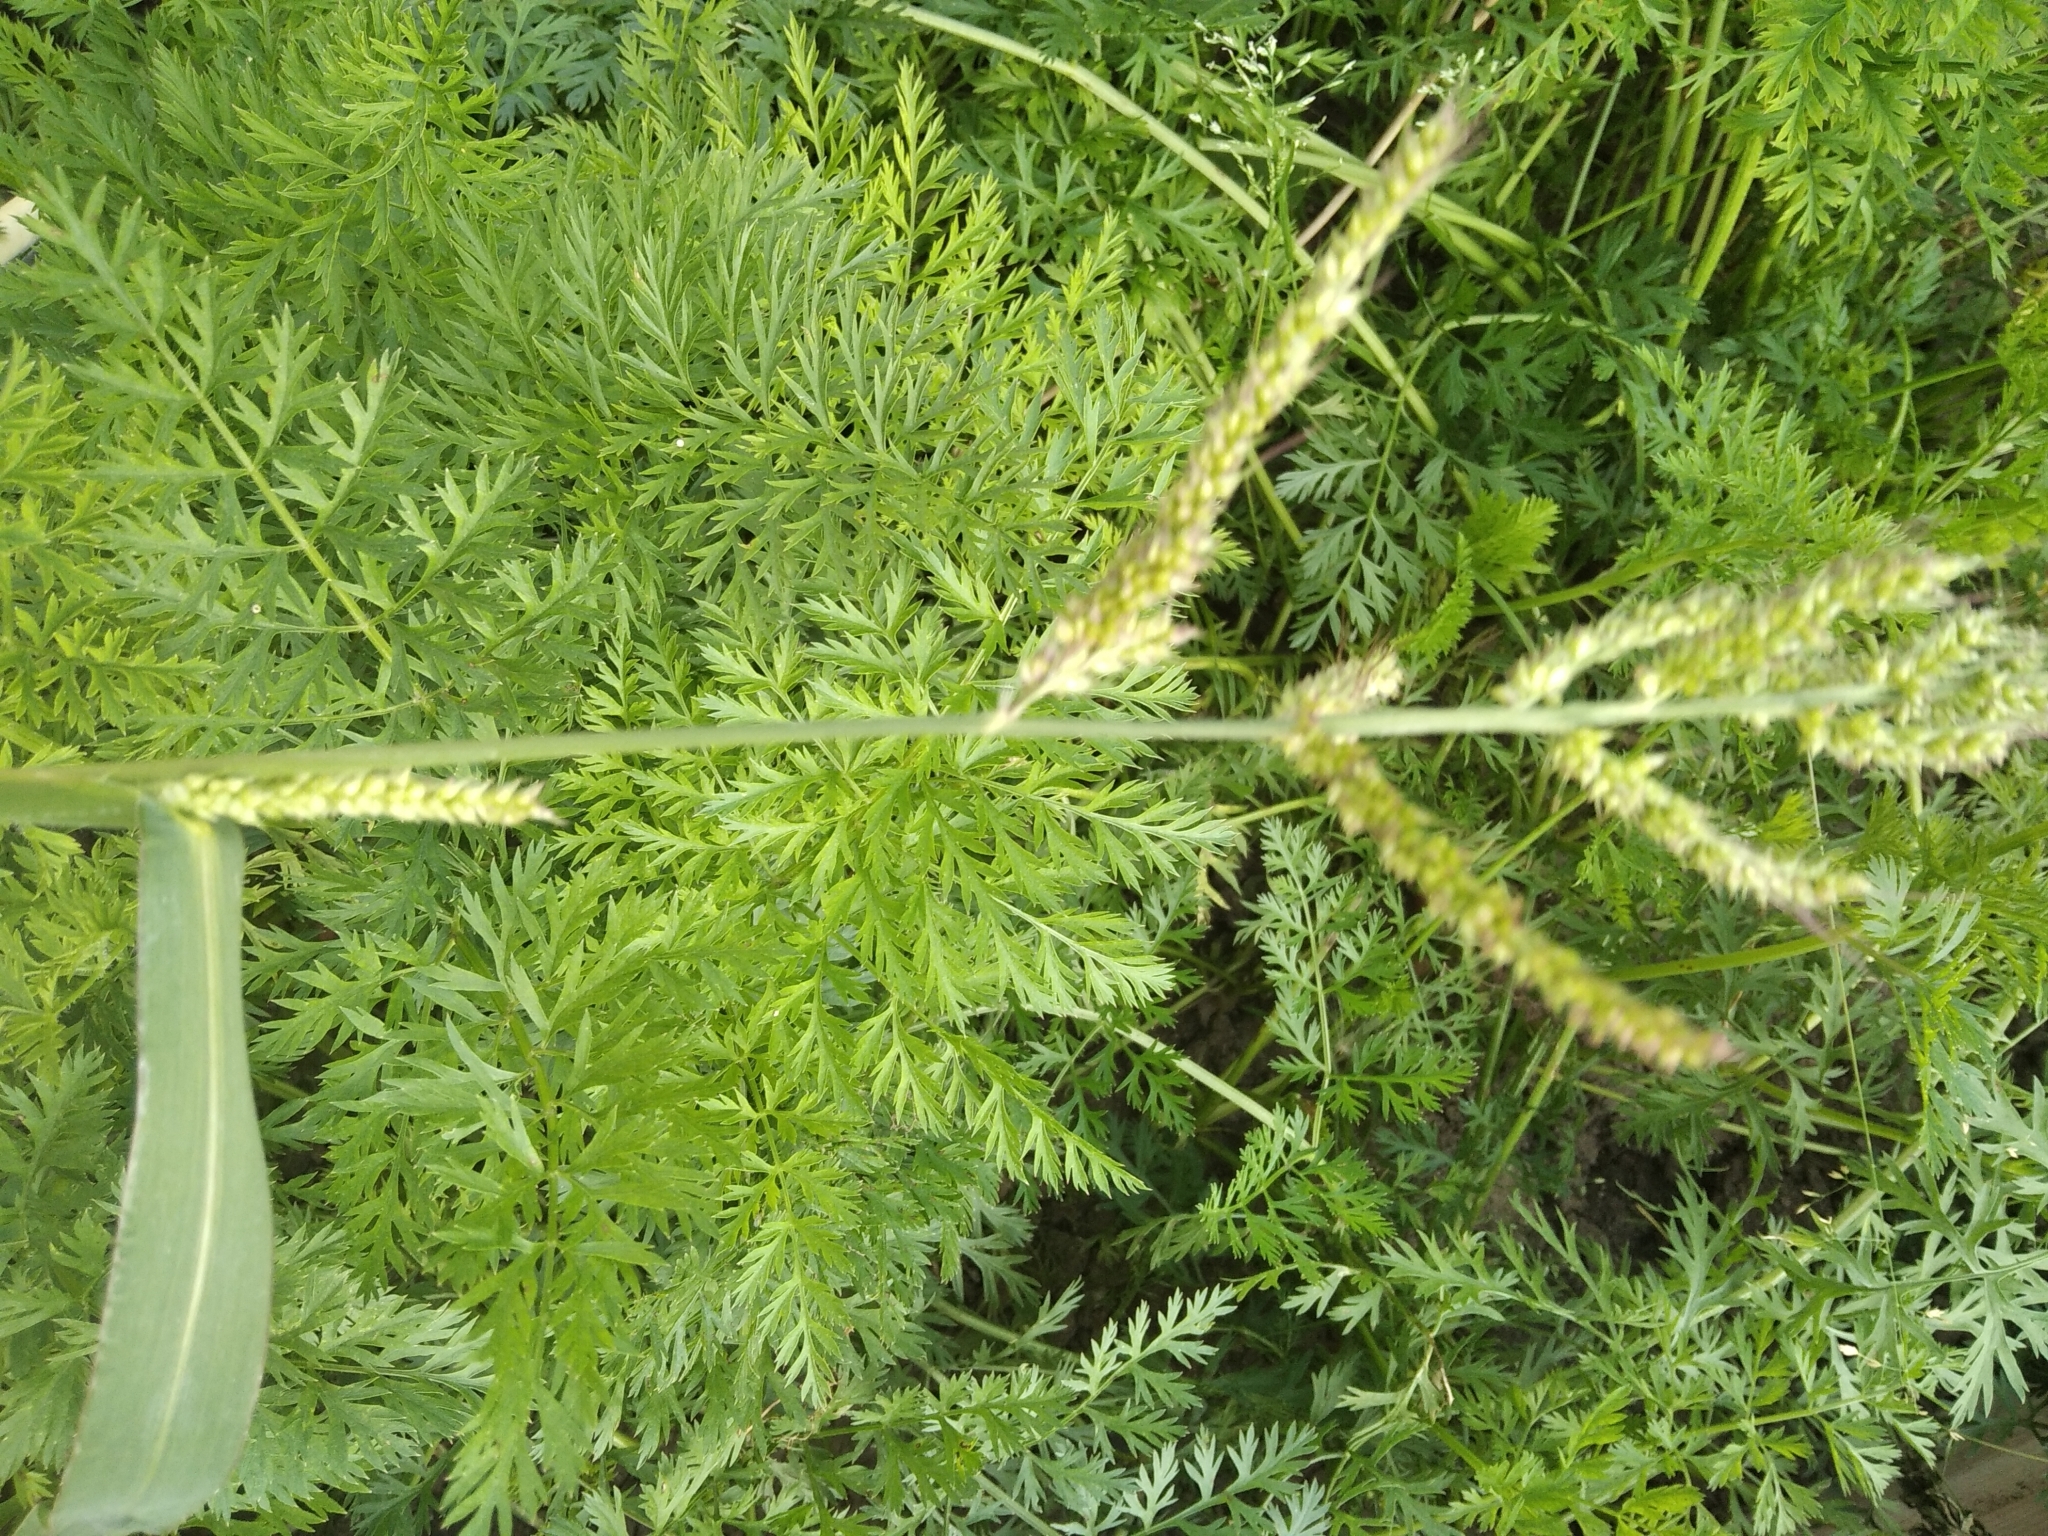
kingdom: Plantae
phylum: Tracheophyta
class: Liliopsida
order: Poales
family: Poaceae
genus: Echinochloa
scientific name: Echinochloa crus-galli
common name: Cockspur
